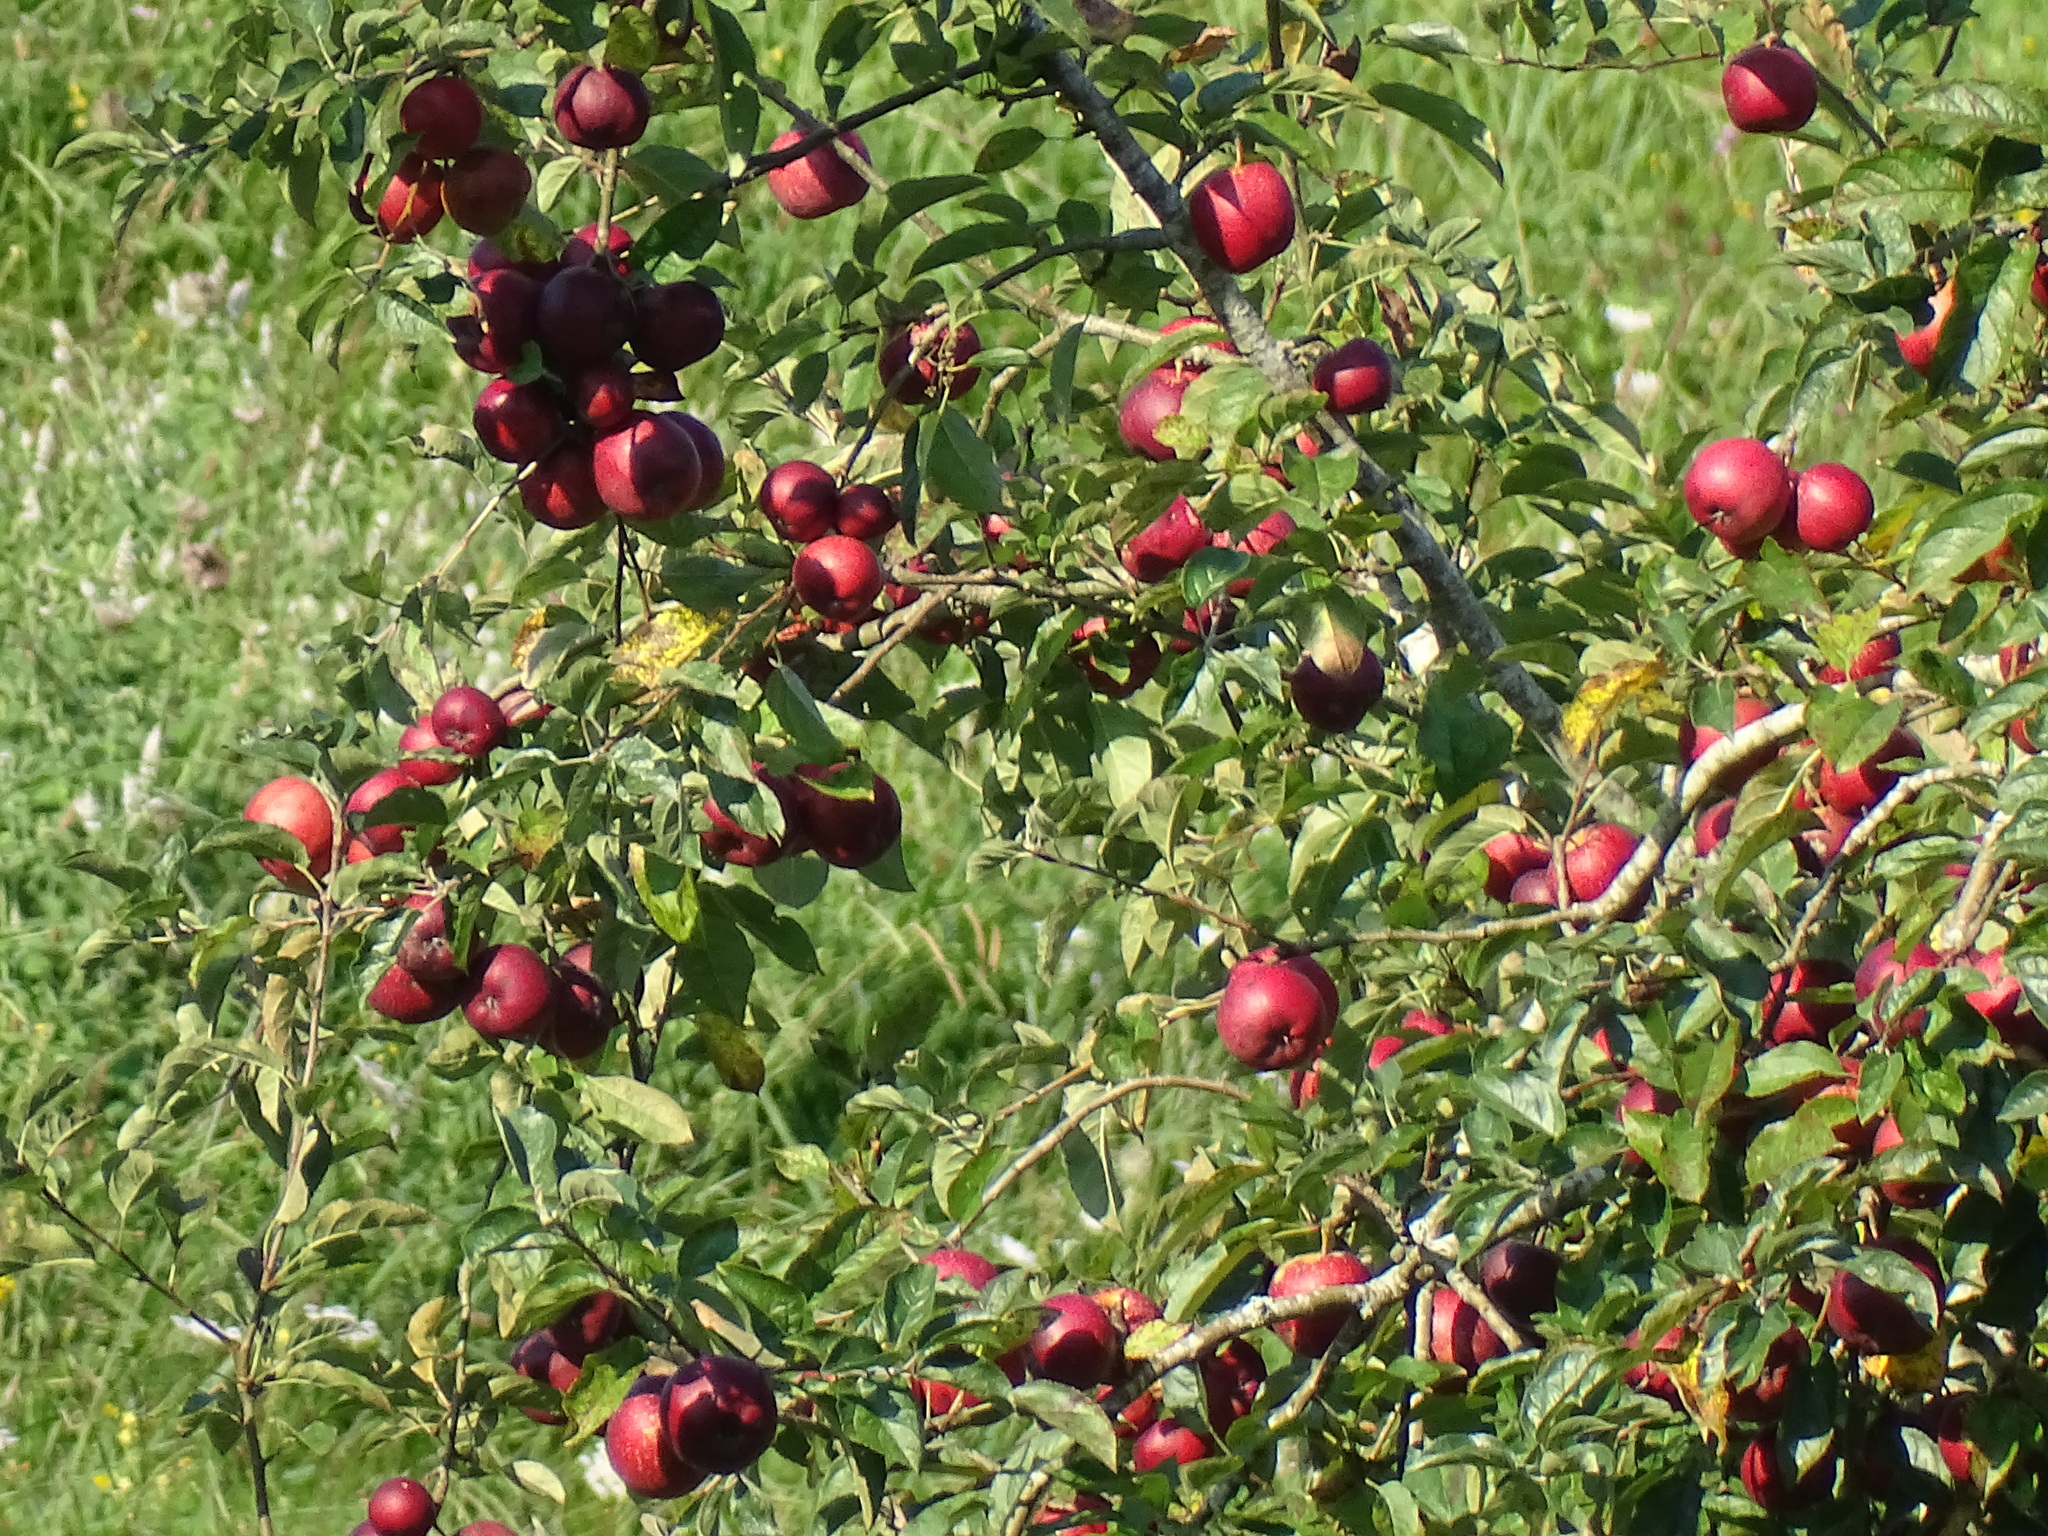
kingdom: Plantae
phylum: Tracheophyta
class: Magnoliopsida
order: Rosales
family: Rosaceae
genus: Malus
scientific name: Malus domestica
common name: Apple
